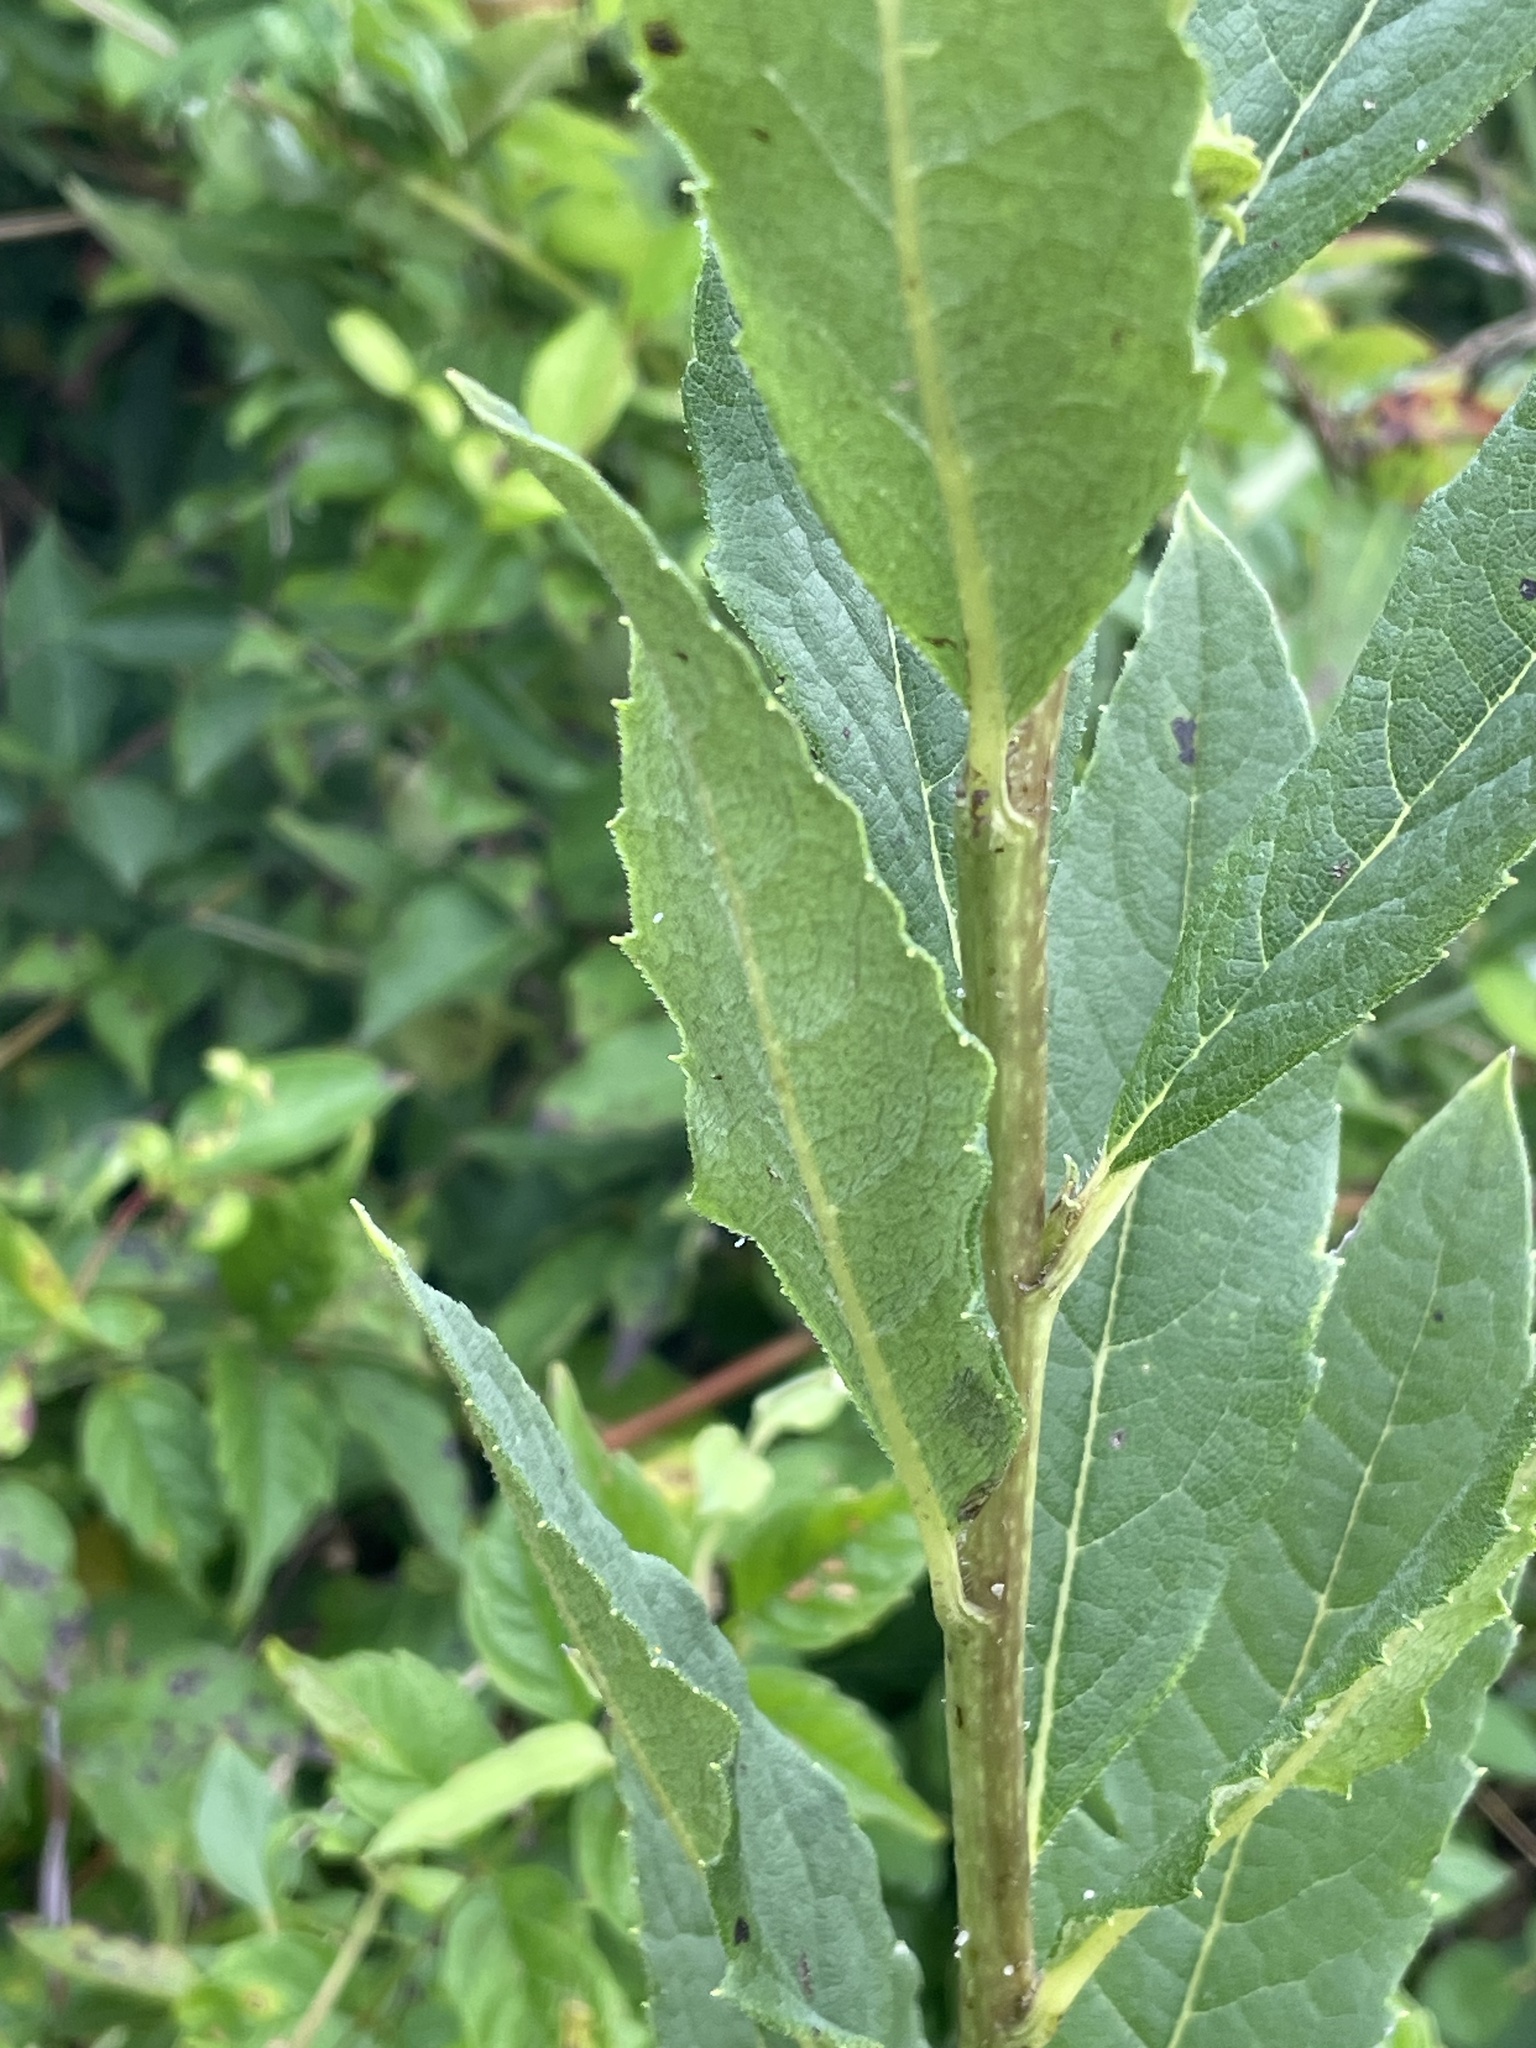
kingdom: Plantae
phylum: Tracheophyta
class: Magnoliopsida
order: Asterales
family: Asteraceae
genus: Silphium
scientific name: Silphium asteriscus
